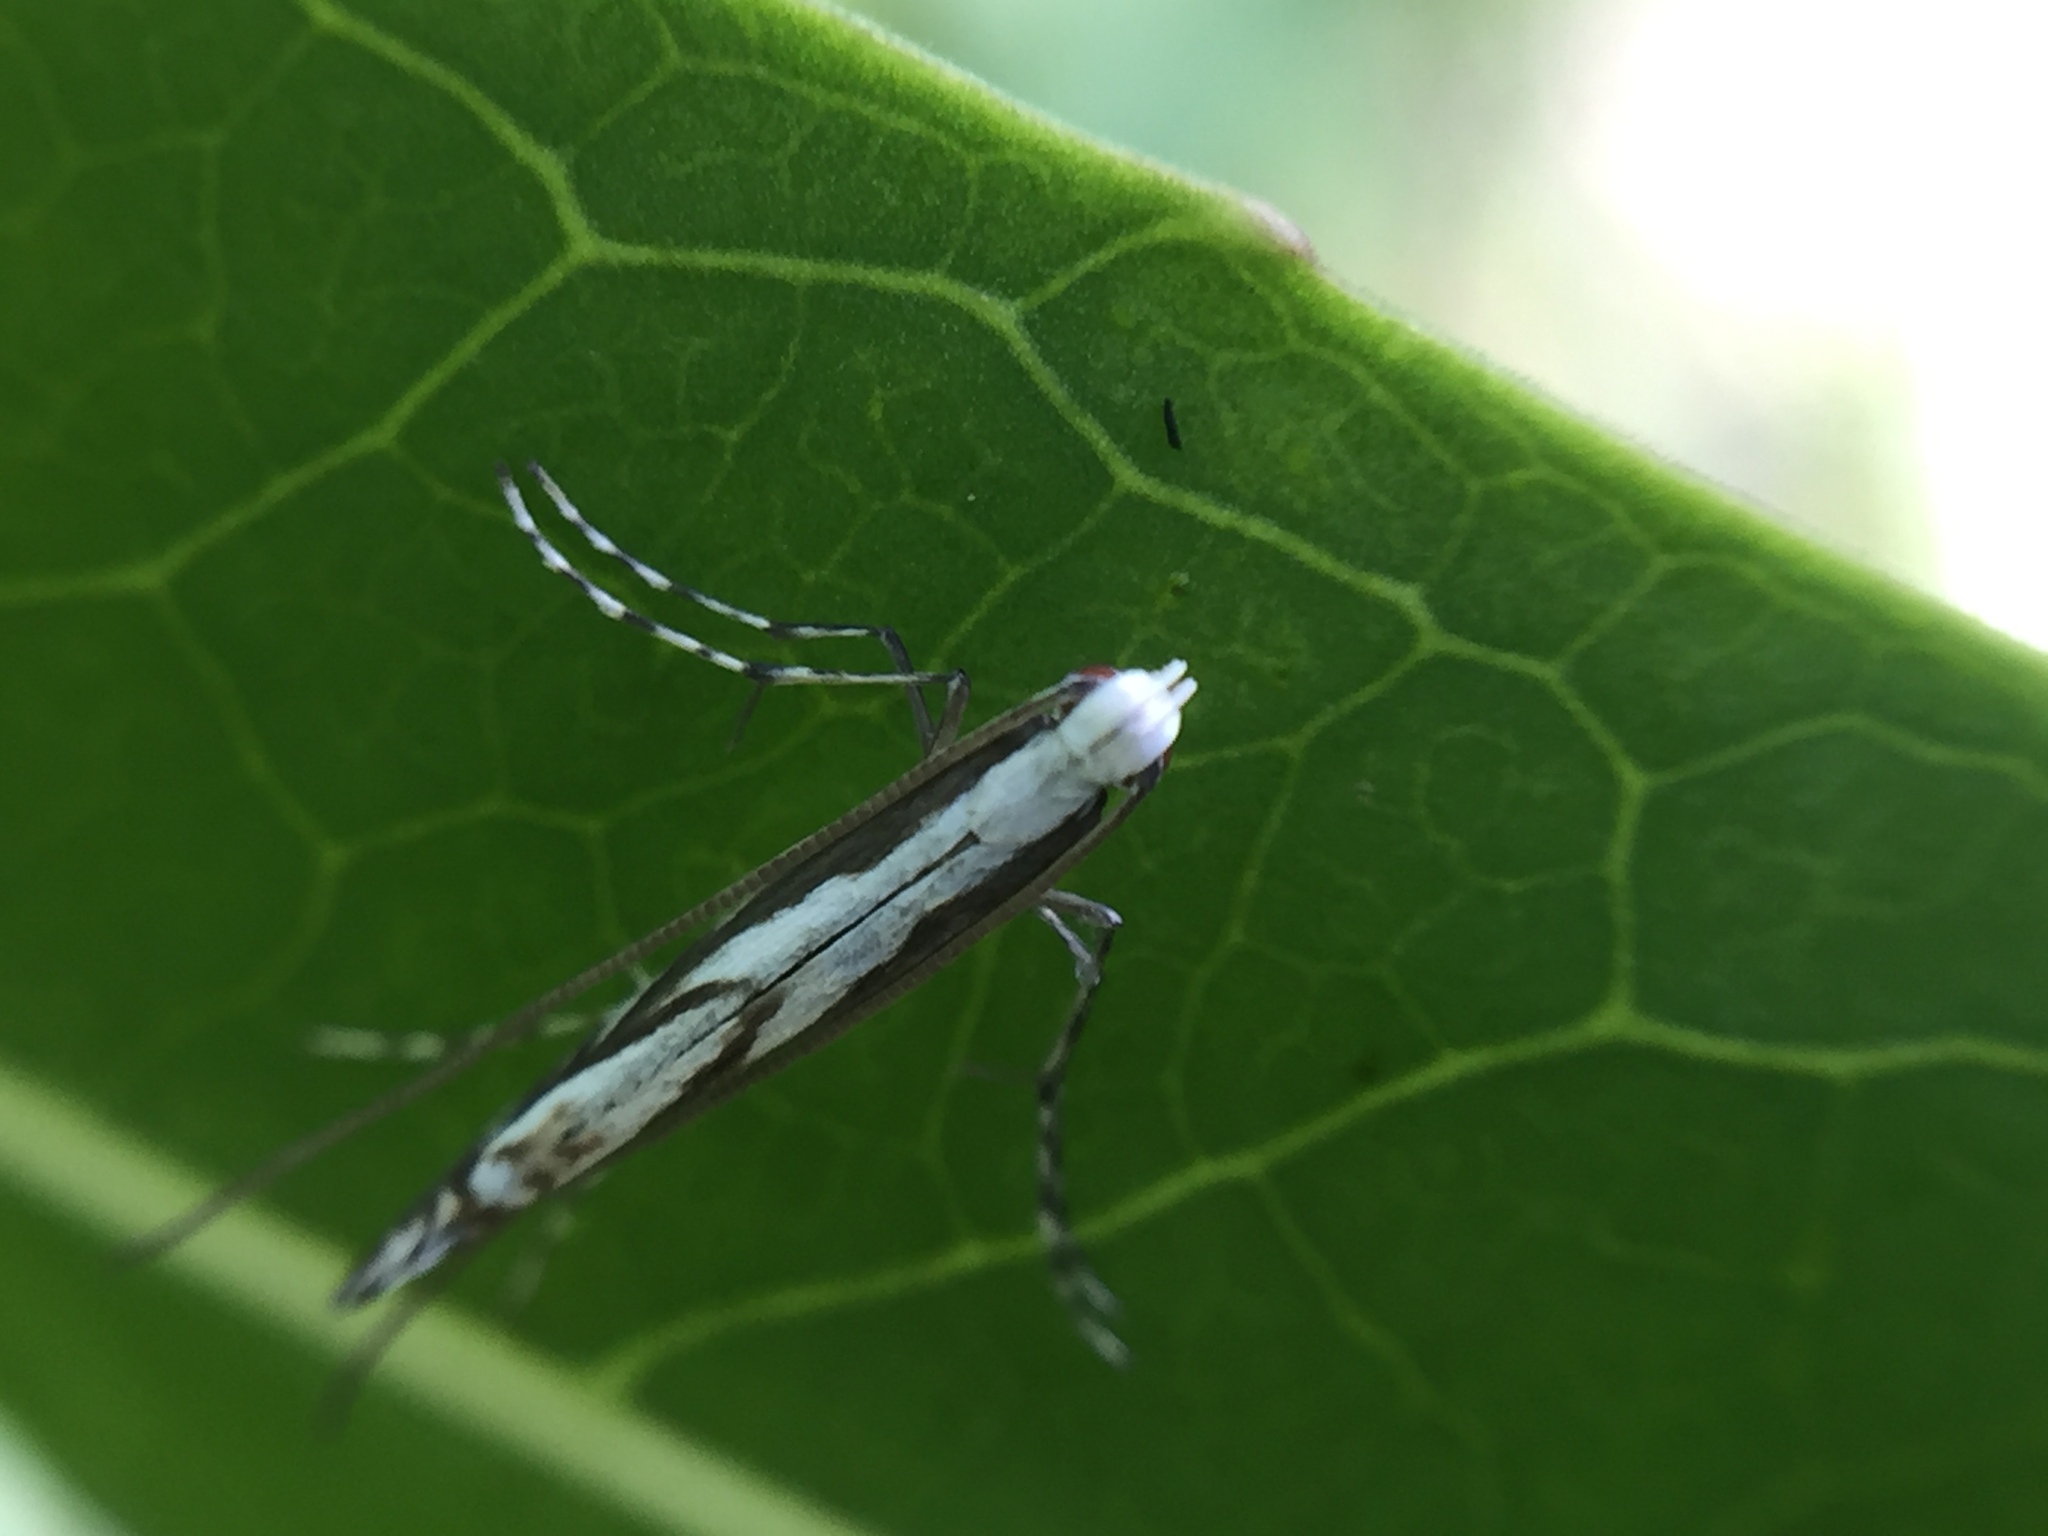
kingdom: Animalia
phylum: Arthropoda
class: Insecta
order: Lepidoptera
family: Gracillariidae
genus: Acrocercops
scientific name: Acrocercops leucotoma
